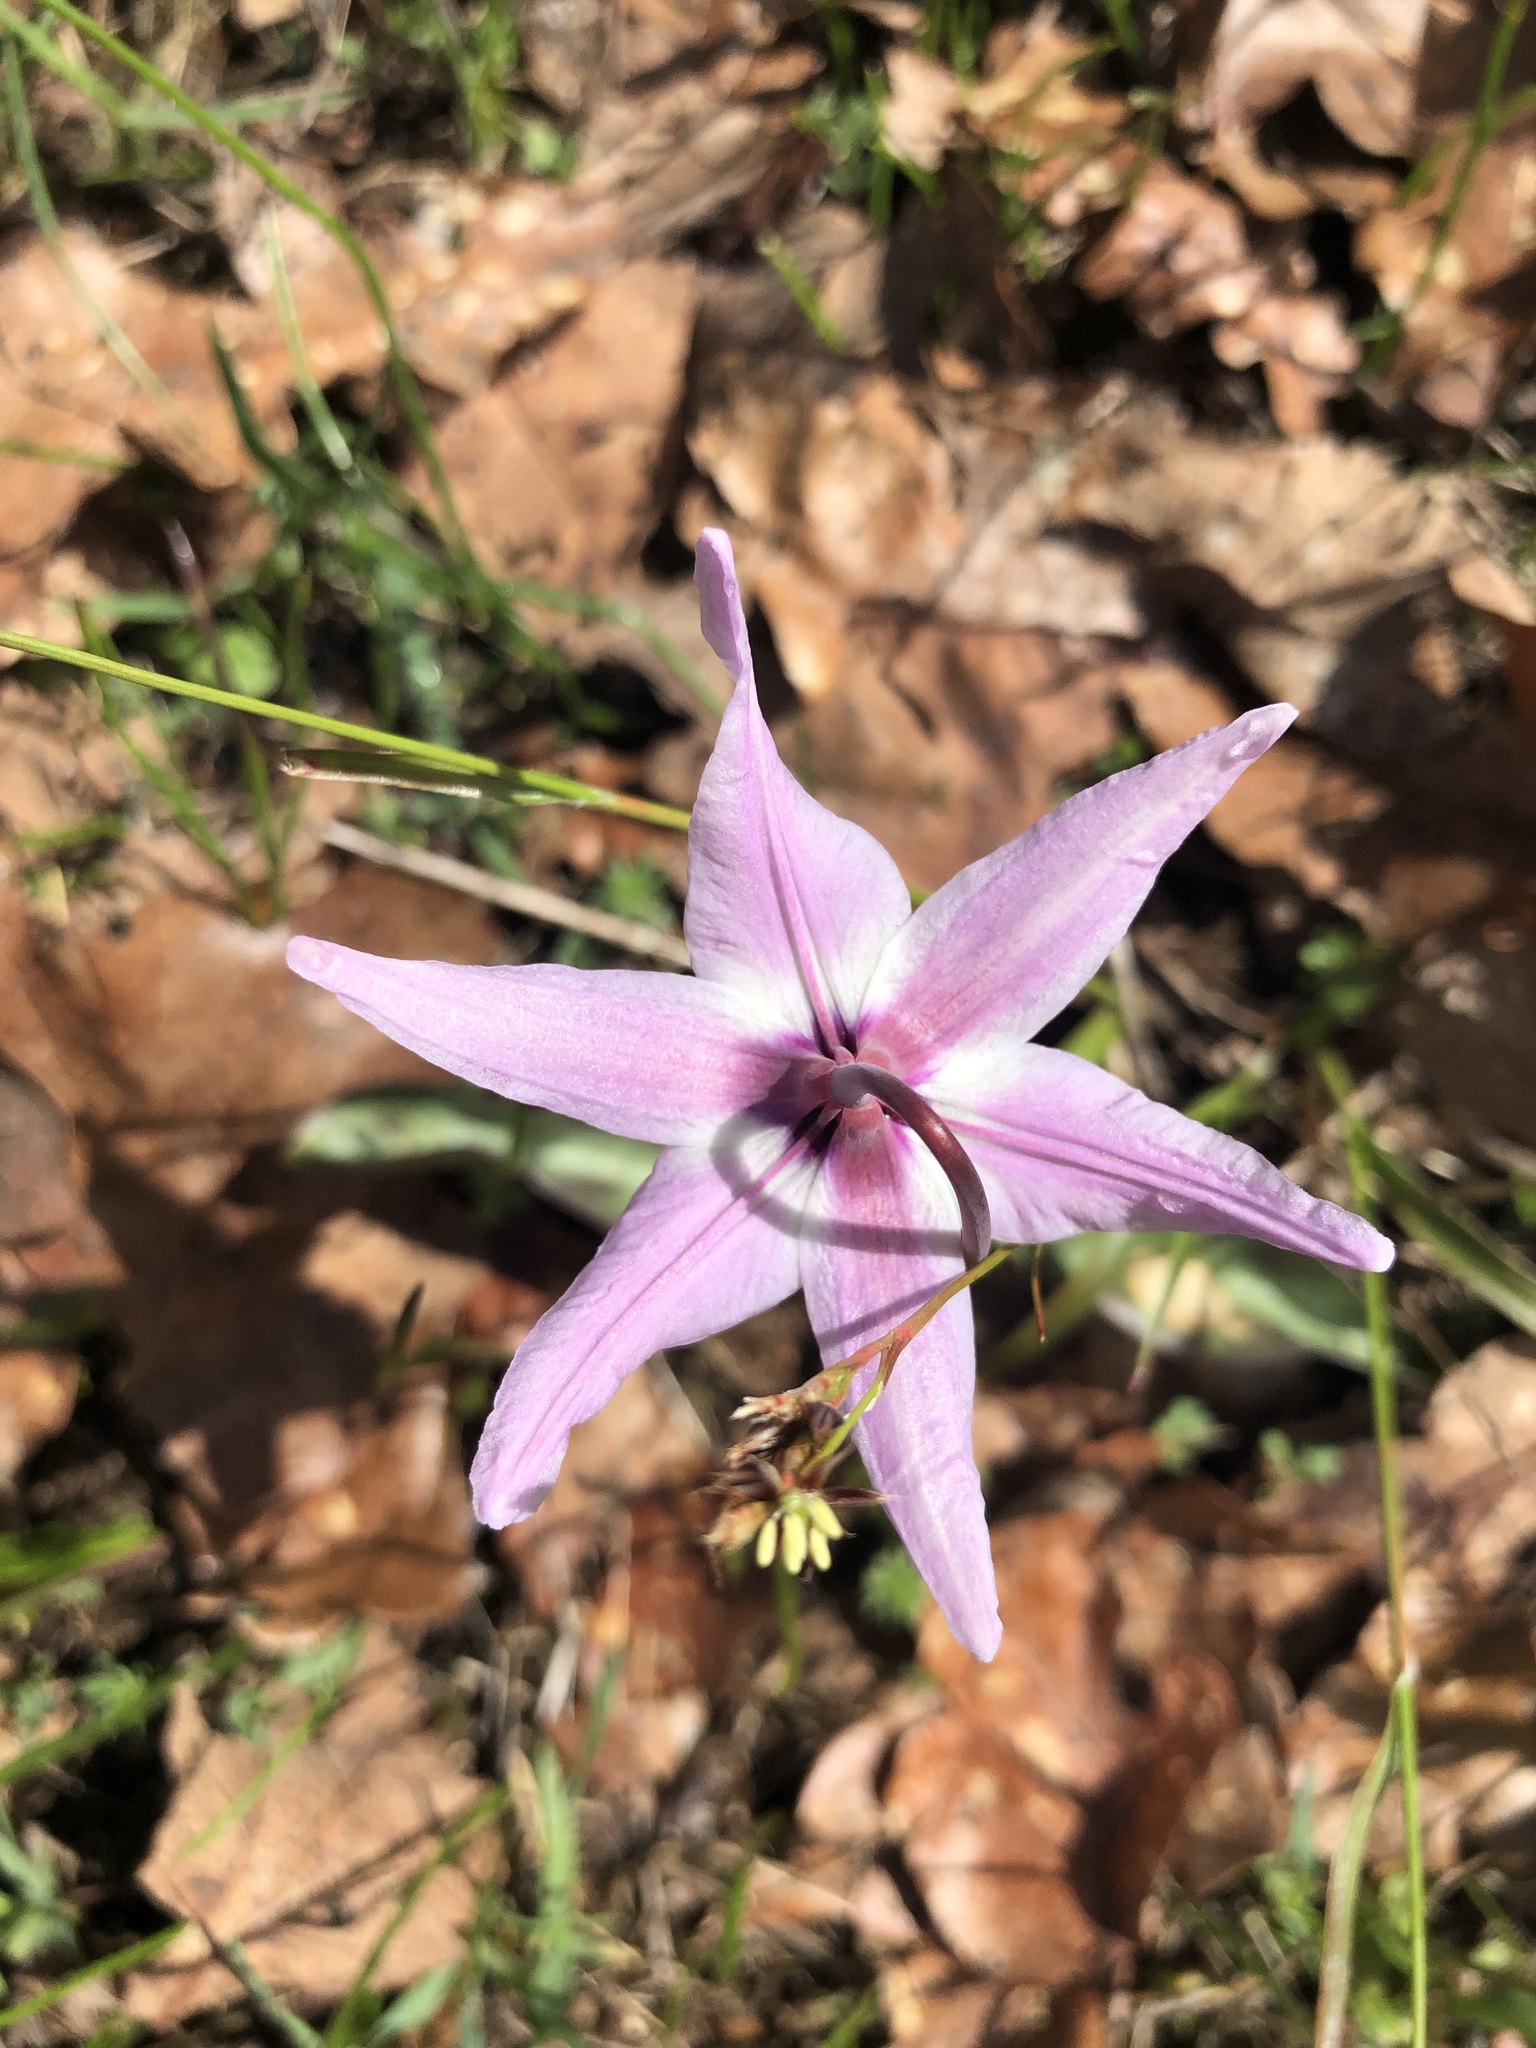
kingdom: Plantae
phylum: Tracheophyta
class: Liliopsida
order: Liliales
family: Liliaceae
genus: Erythronium
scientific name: Erythronium hendersonii
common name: Henderson's fawn-lily
